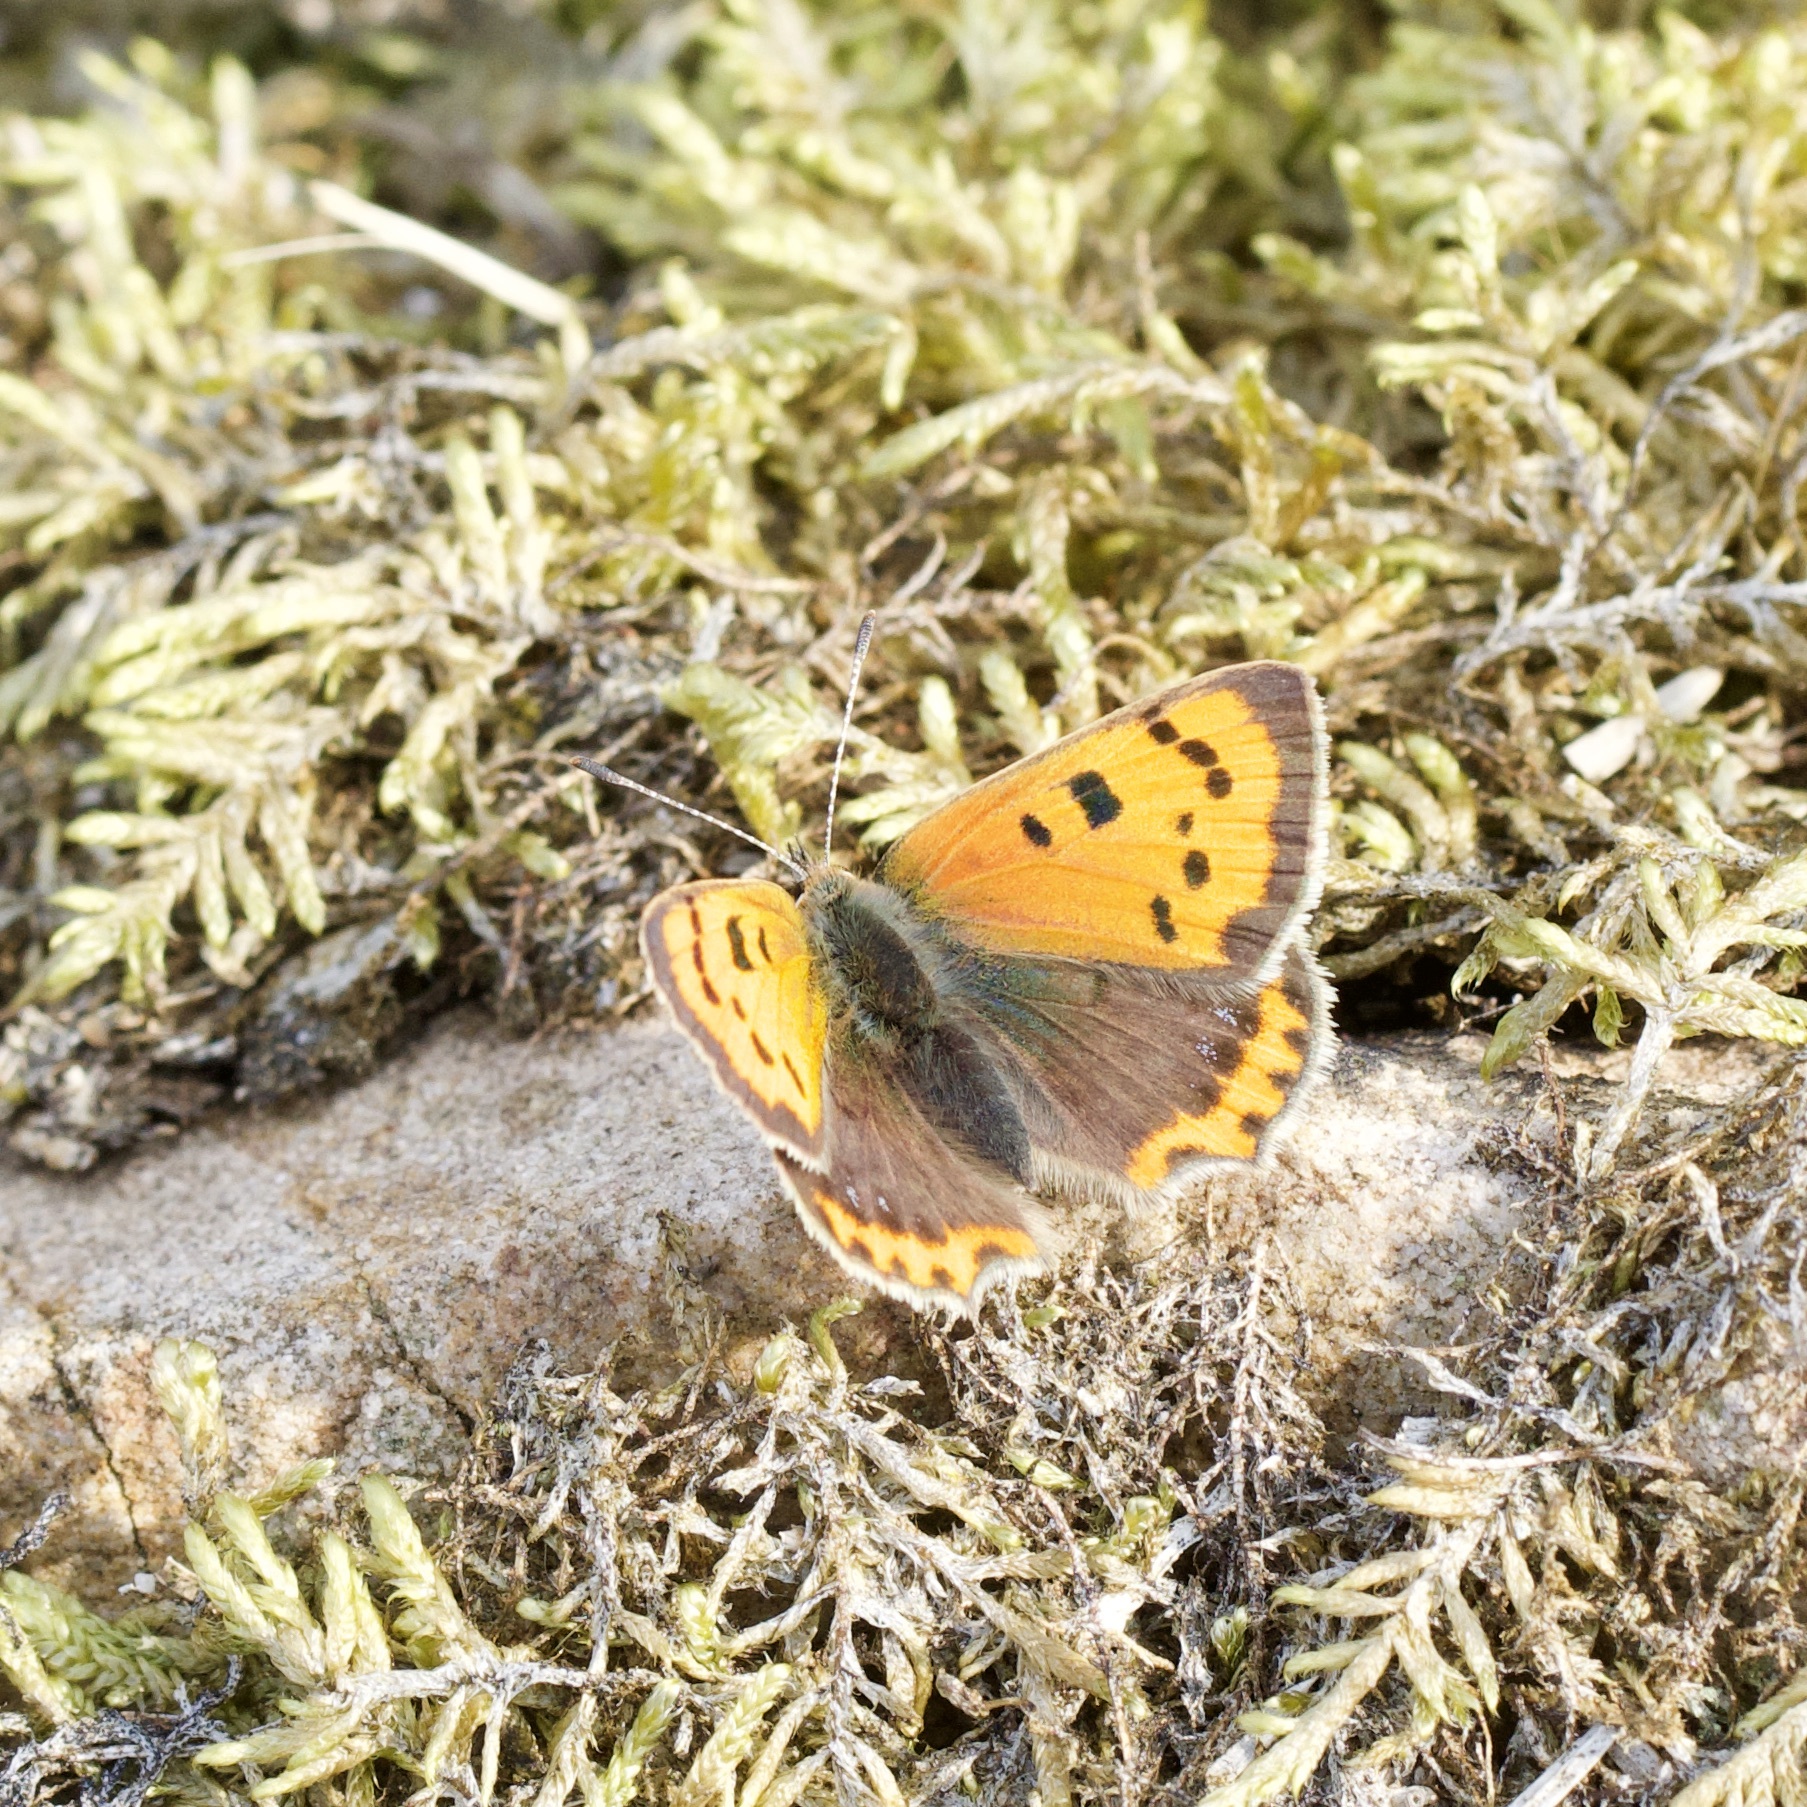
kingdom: Animalia
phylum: Arthropoda
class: Insecta
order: Lepidoptera
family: Lycaenidae
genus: Lycaena
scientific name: Lycaena phlaeas
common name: Small copper
